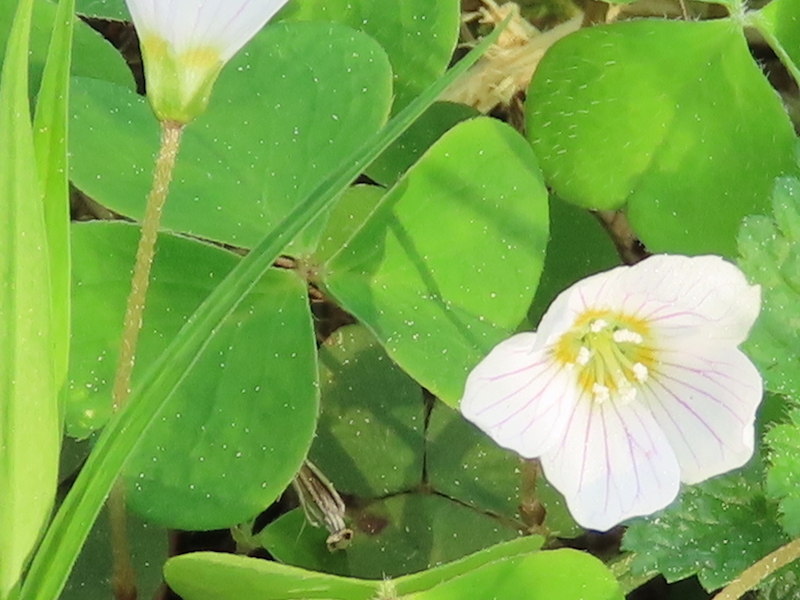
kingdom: Plantae
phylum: Tracheophyta
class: Magnoliopsida
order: Oxalidales
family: Oxalidaceae
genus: Oxalis
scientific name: Oxalis acetosella
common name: Wood-sorrel
